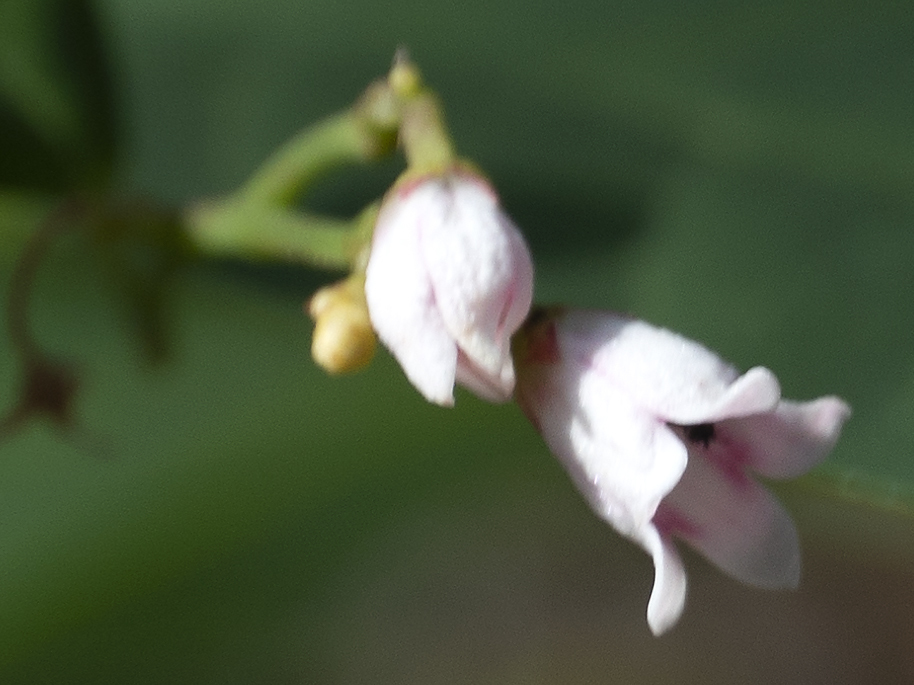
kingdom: Plantae
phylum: Tracheophyta
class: Magnoliopsida
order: Gentianales
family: Apocynaceae
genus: Apocynum
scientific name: Apocynum androsaemifolium
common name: Spreading dogbane
